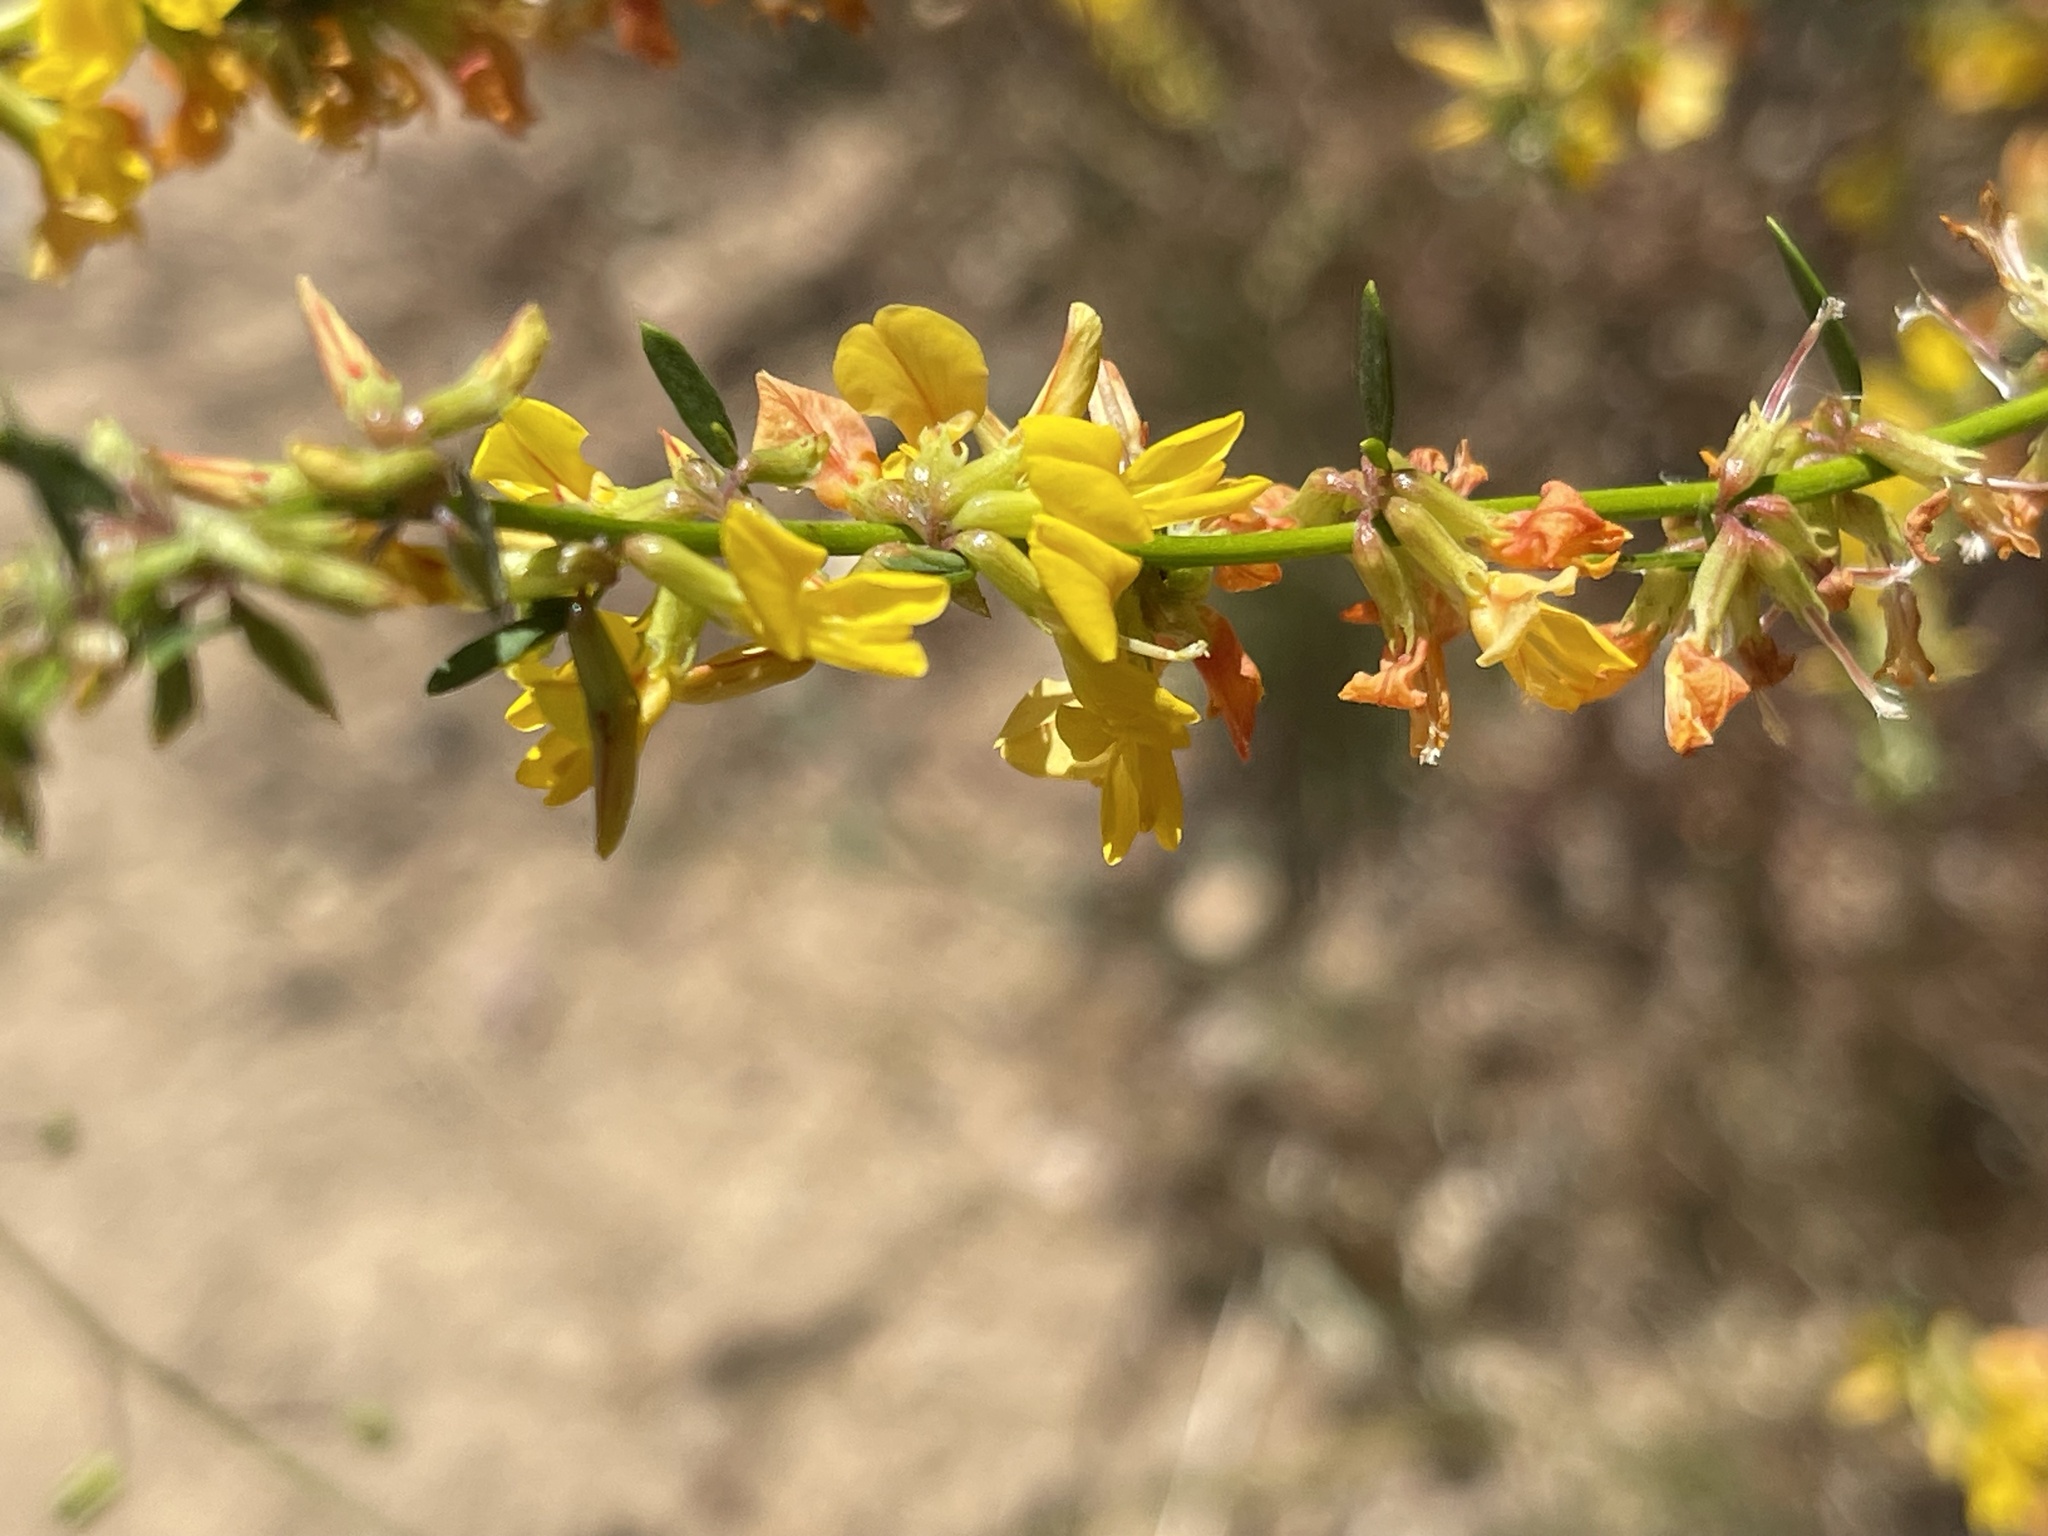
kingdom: Plantae
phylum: Tracheophyta
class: Magnoliopsida
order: Fabales
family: Fabaceae
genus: Acmispon
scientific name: Acmispon glaber
